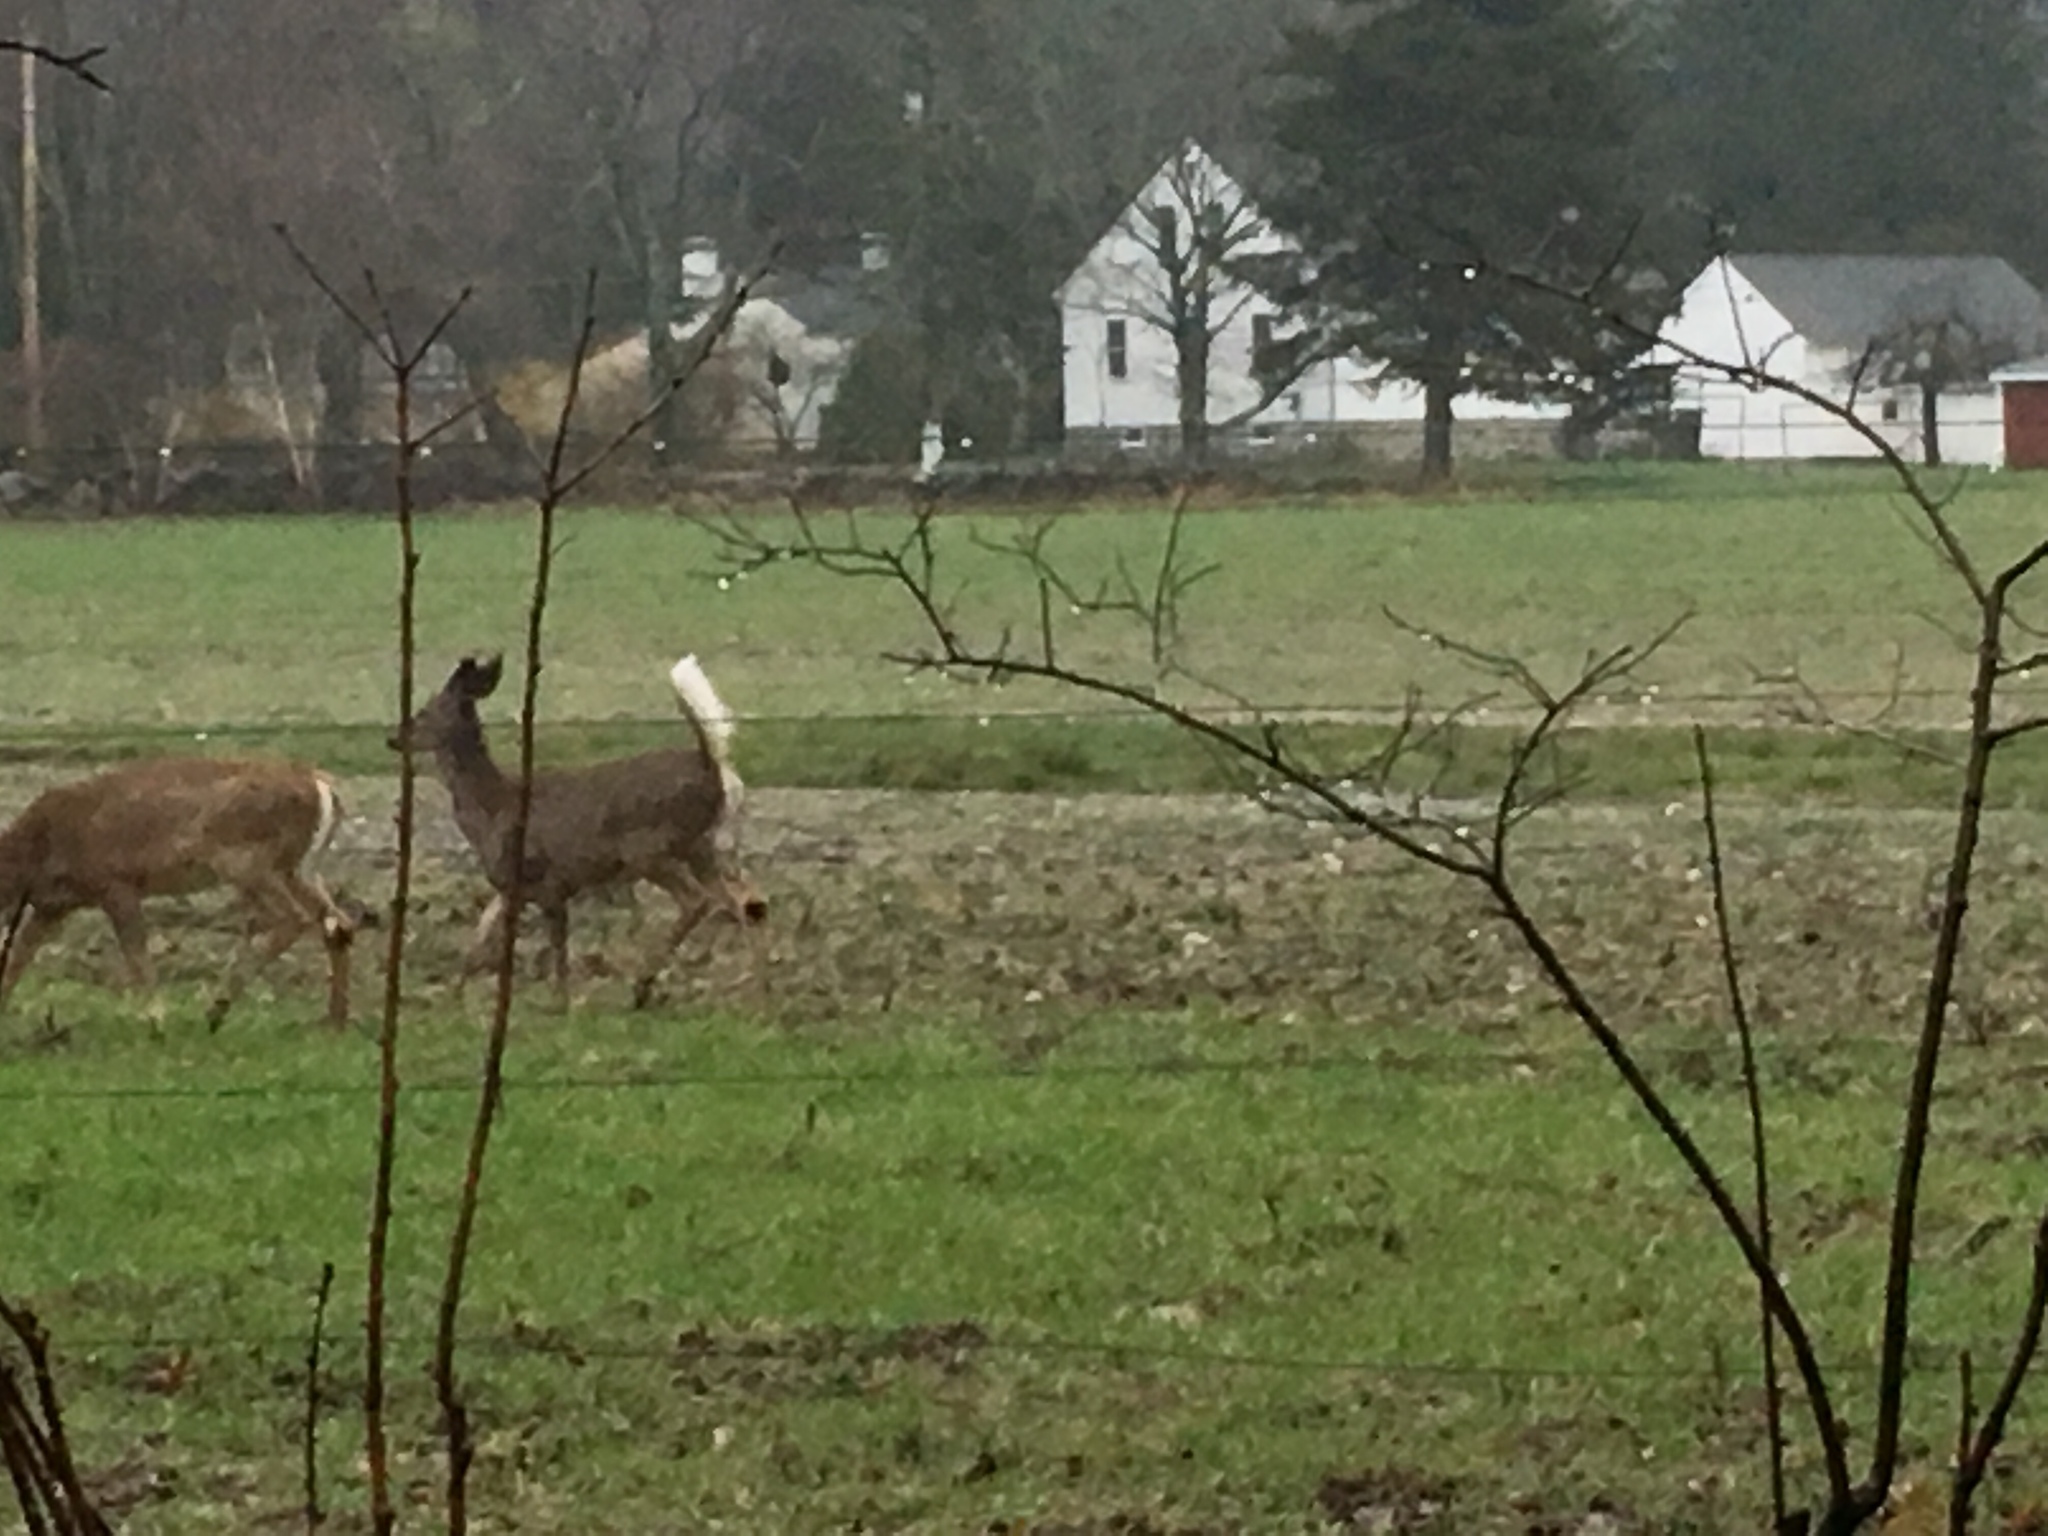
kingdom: Animalia
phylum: Chordata
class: Mammalia
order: Artiodactyla
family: Cervidae
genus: Odocoileus
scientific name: Odocoileus virginianus
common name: White-tailed deer
